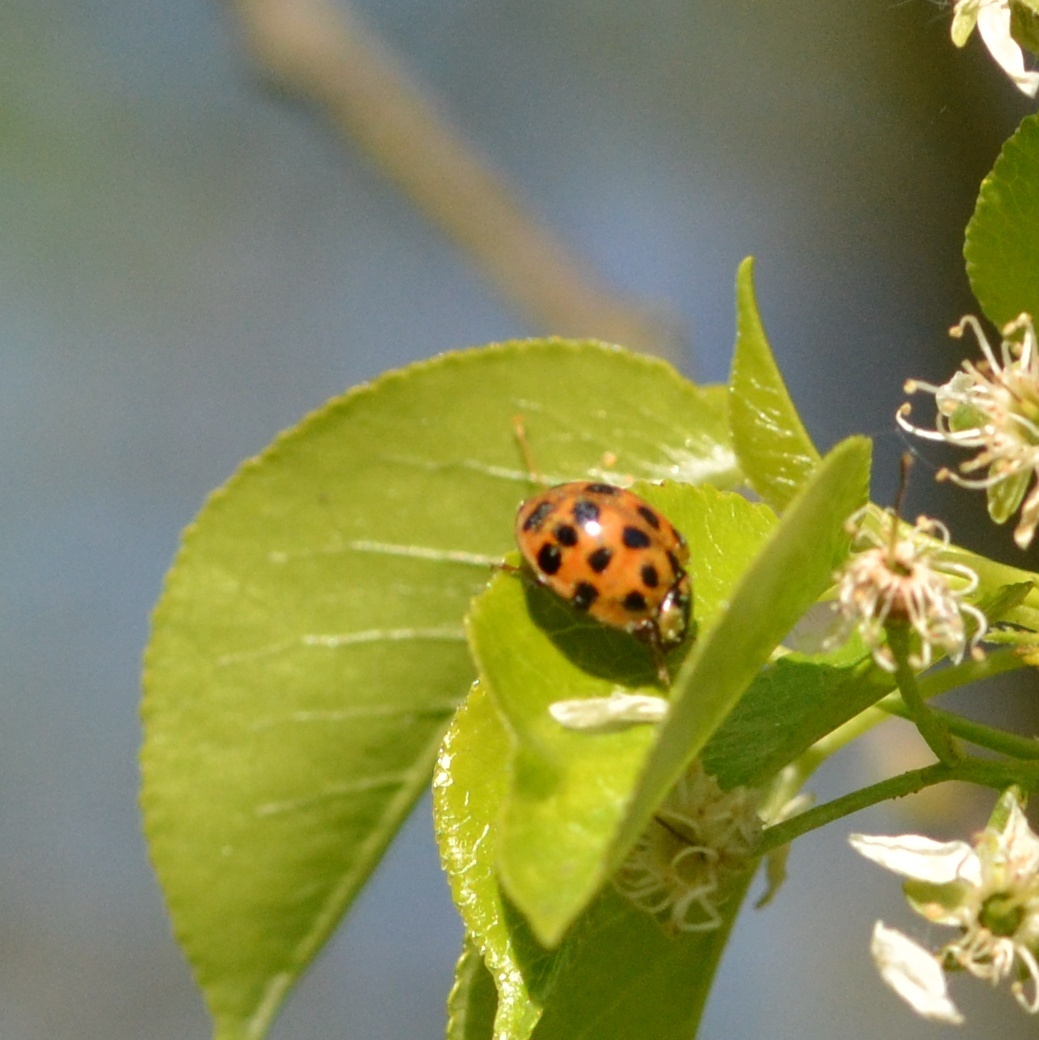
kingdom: Animalia
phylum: Arthropoda
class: Insecta
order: Coleoptera
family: Coccinellidae
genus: Harmonia
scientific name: Harmonia axyridis
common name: Harlequin ladybird
